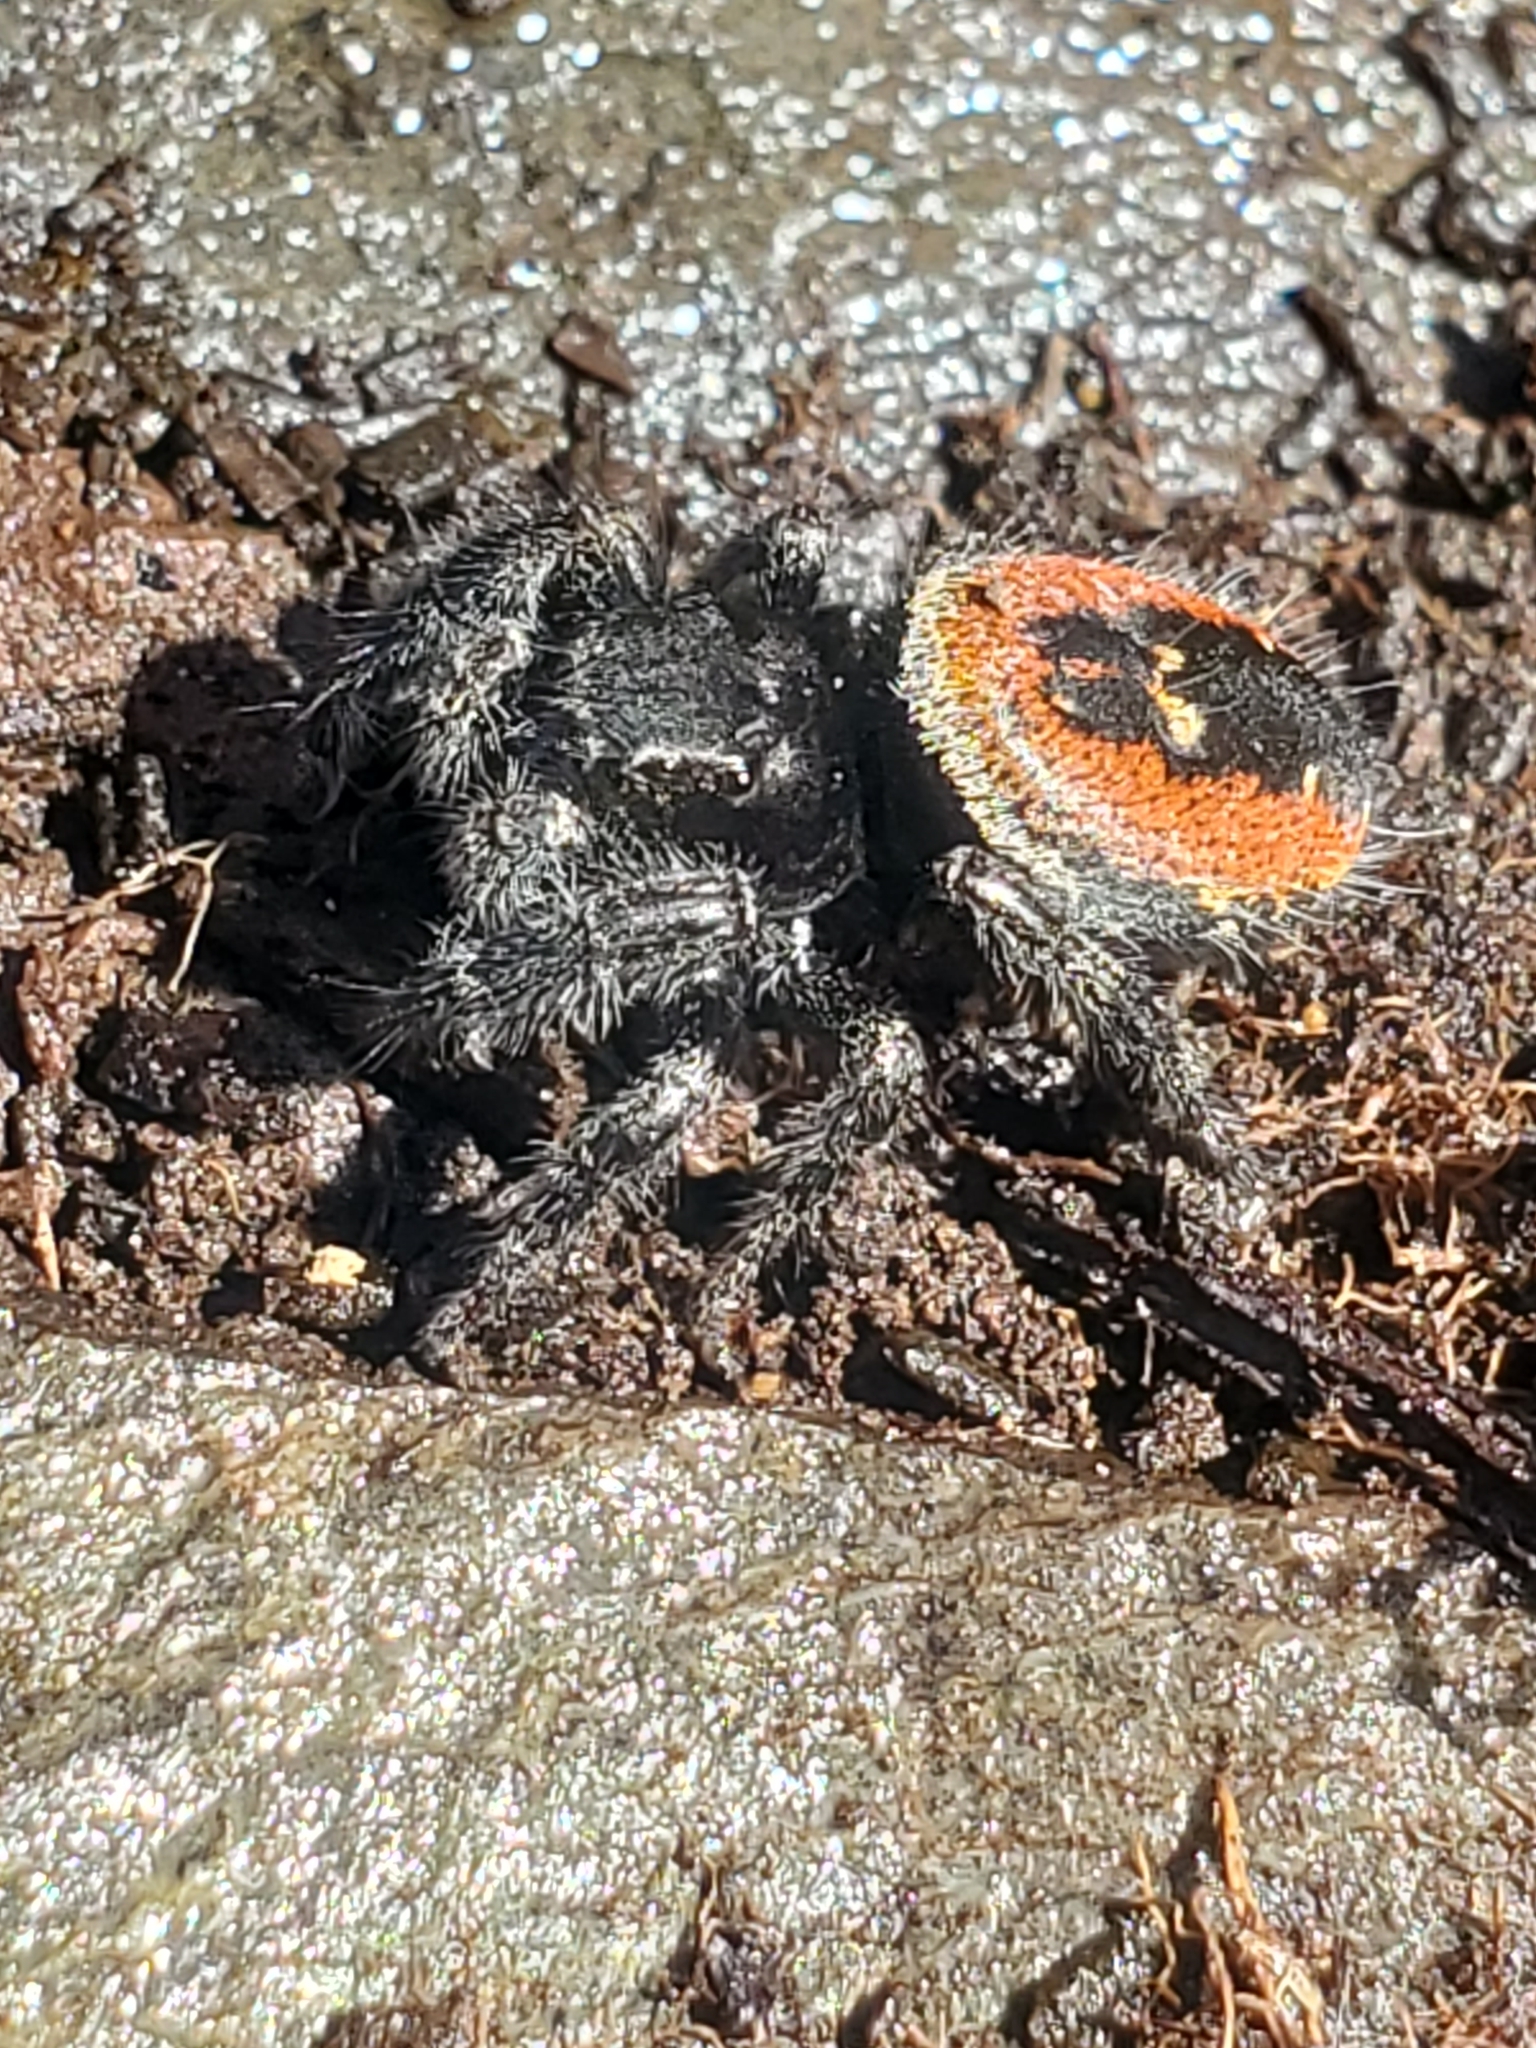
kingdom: Animalia
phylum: Arthropoda
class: Arachnida
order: Araneae
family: Salticidae
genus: Phidippus
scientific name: Phidippus johnsoni
